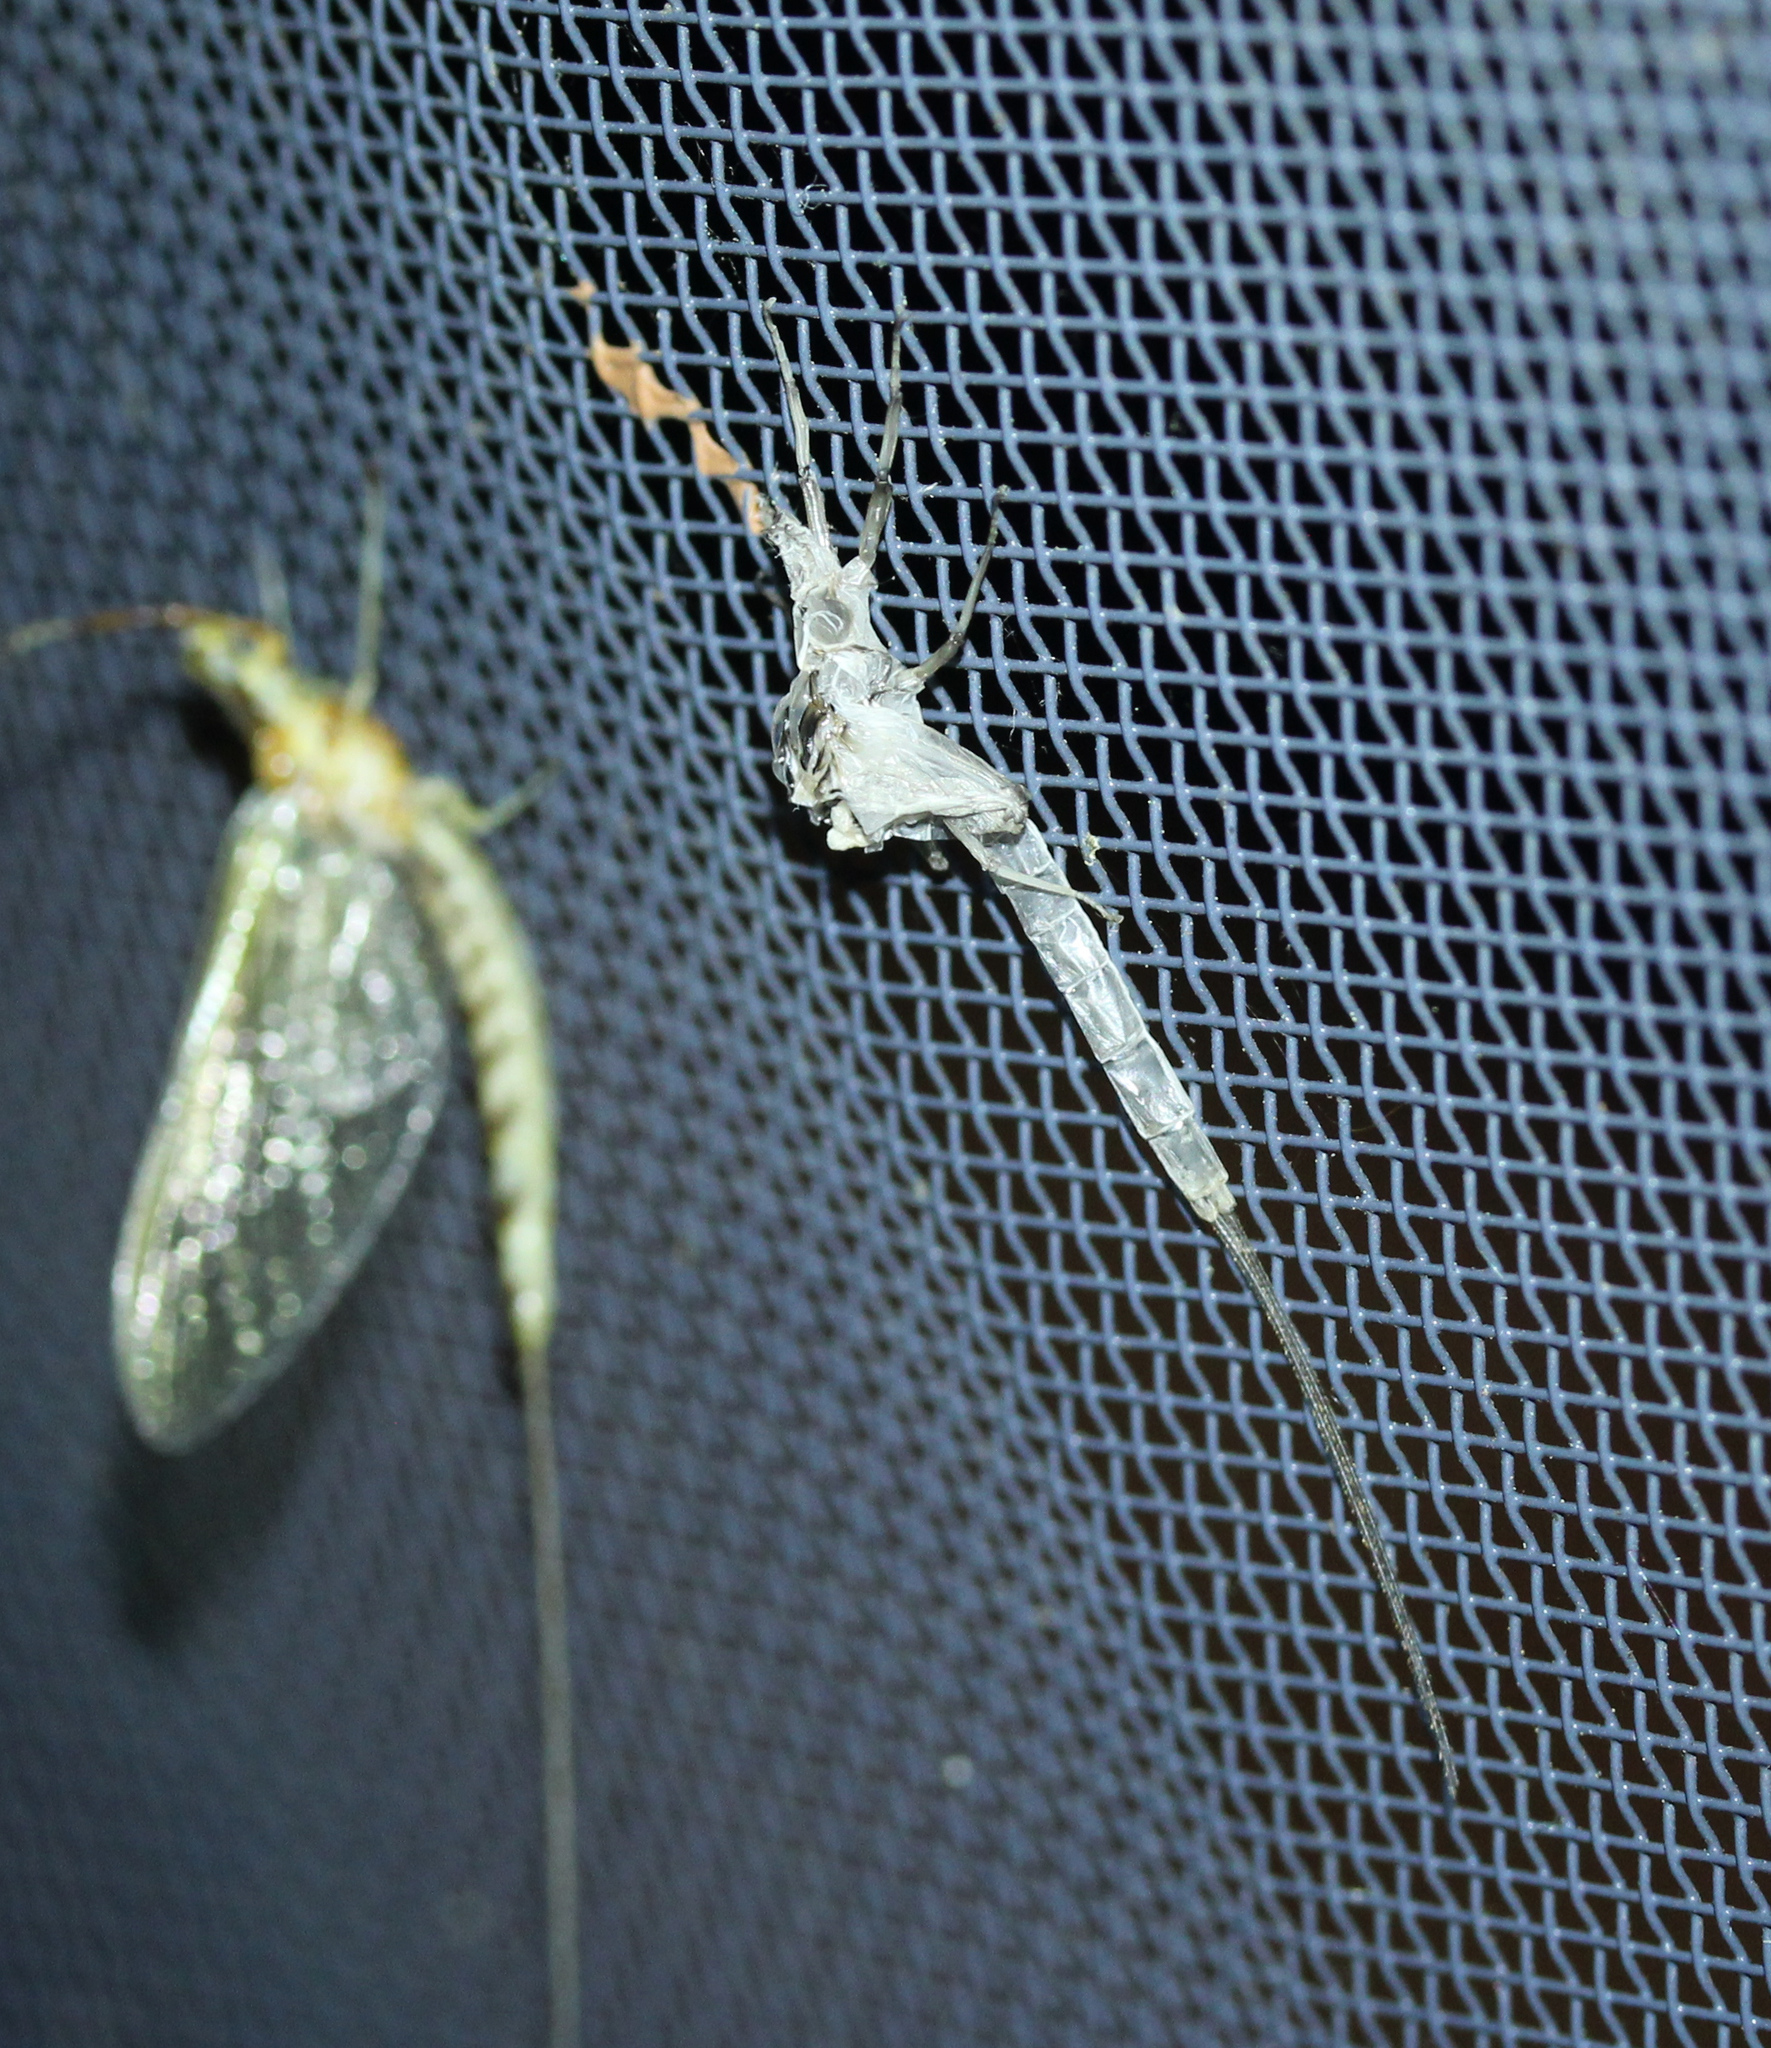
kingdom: Animalia
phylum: Arthropoda
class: Insecta
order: Ephemeroptera
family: Ephemeridae
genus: Hexagenia
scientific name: Hexagenia limbata
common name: Giant mayfly
